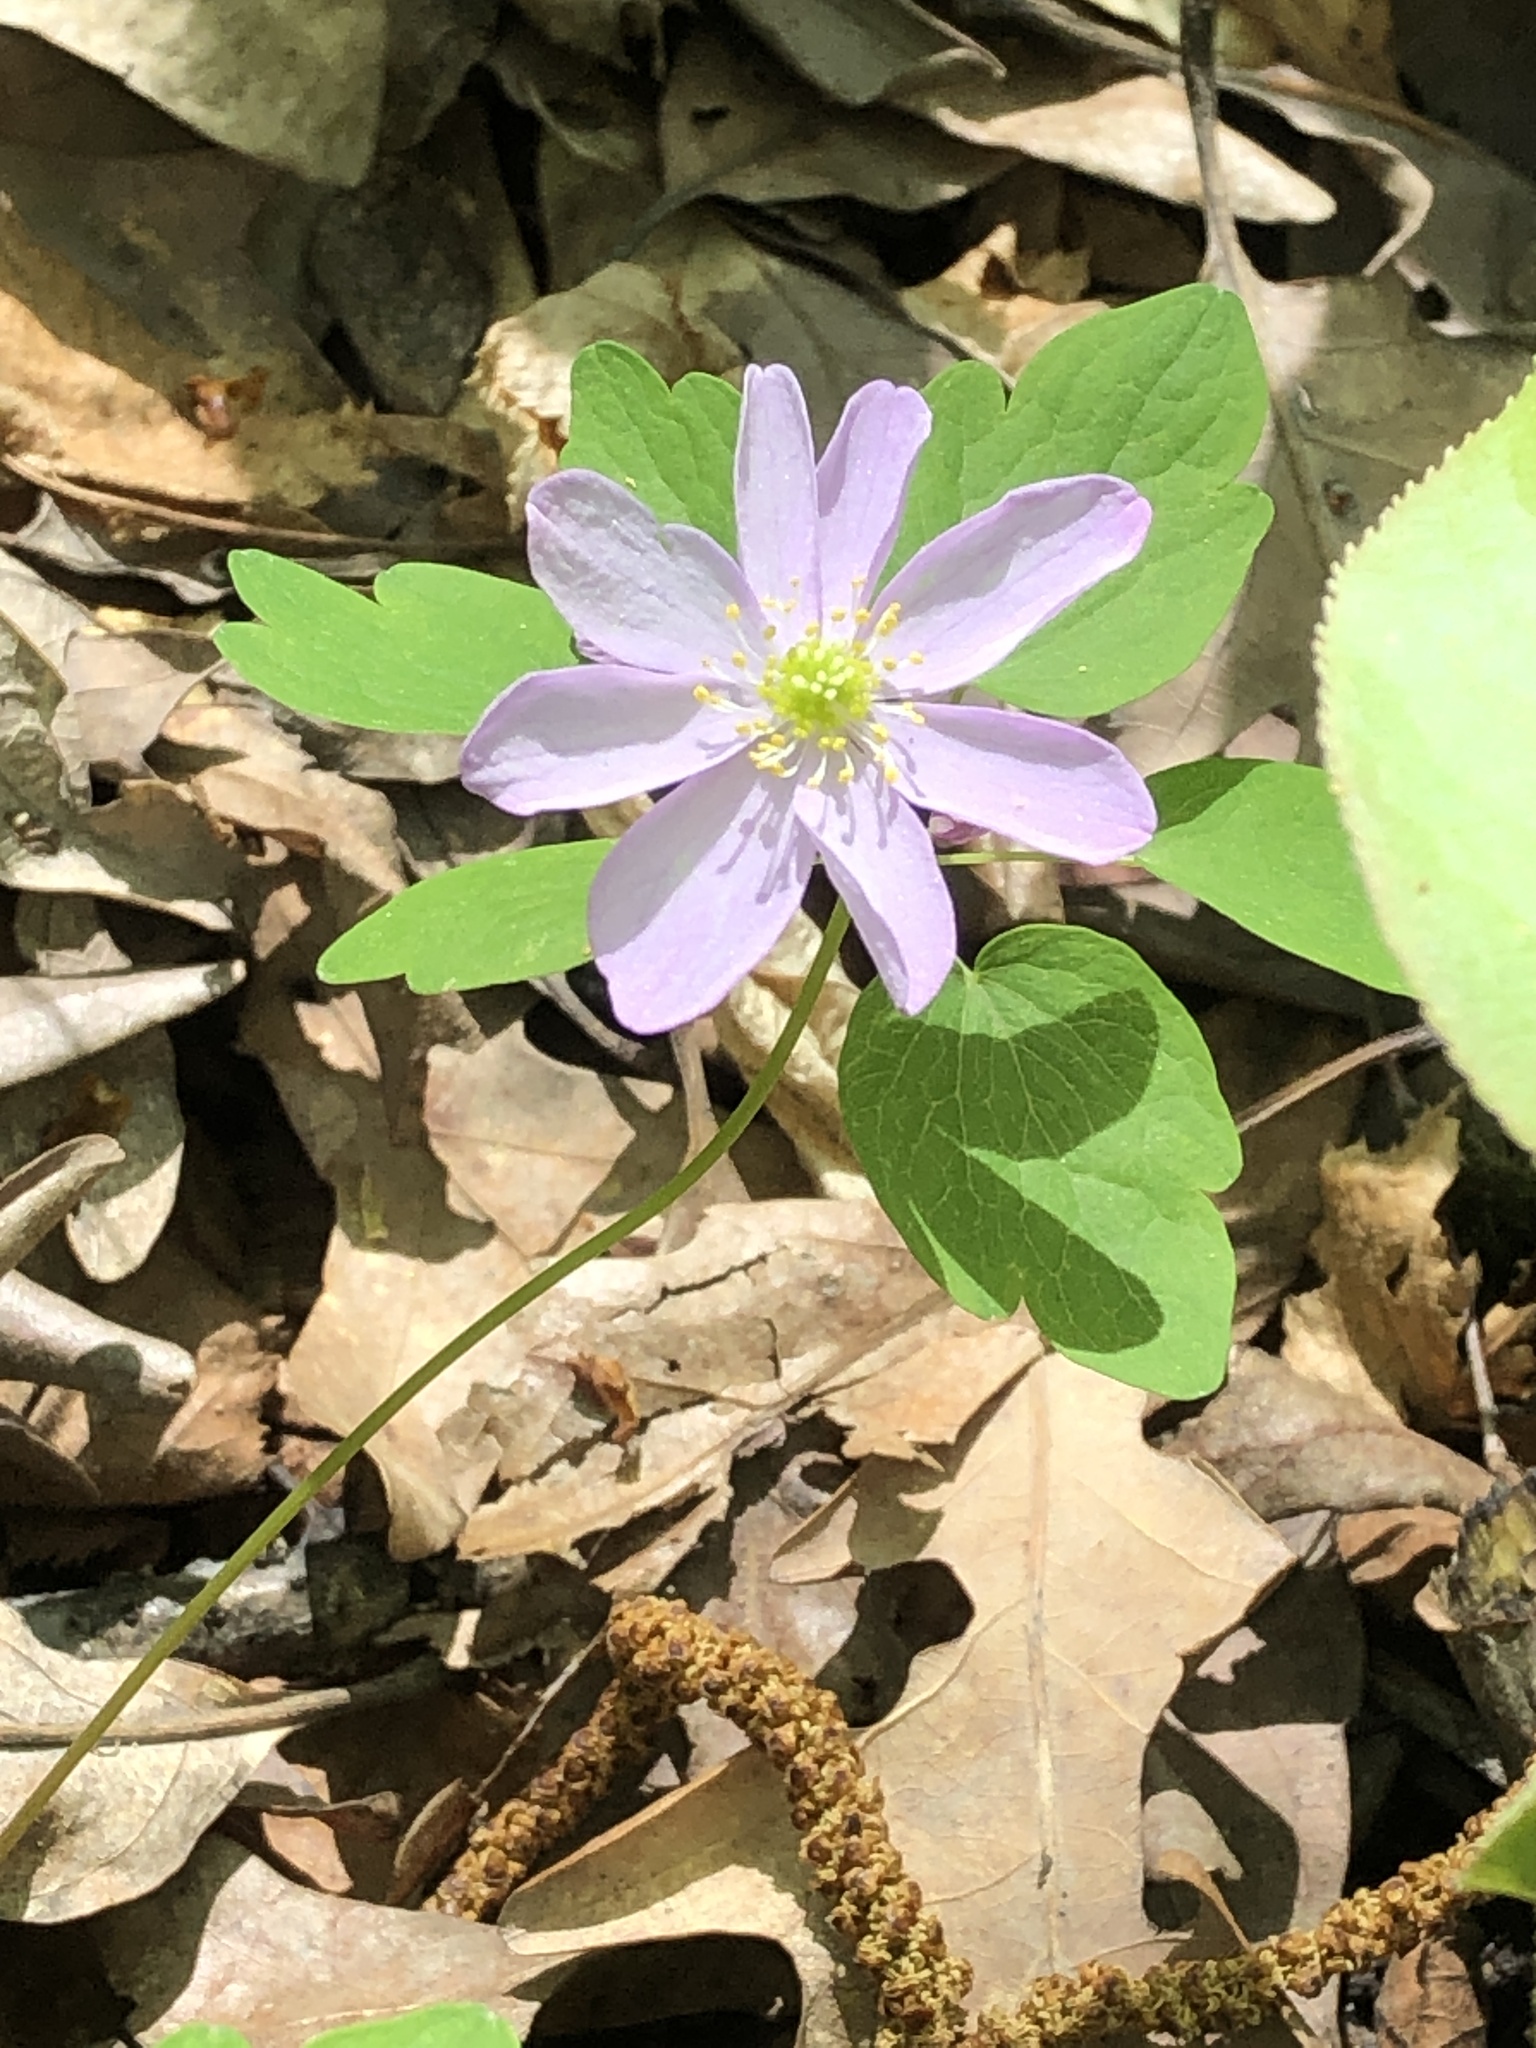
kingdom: Plantae
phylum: Tracheophyta
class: Magnoliopsida
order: Ranunculales
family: Ranunculaceae
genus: Thalictrum
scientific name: Thalictrum thalictroides
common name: Rue-anemone
